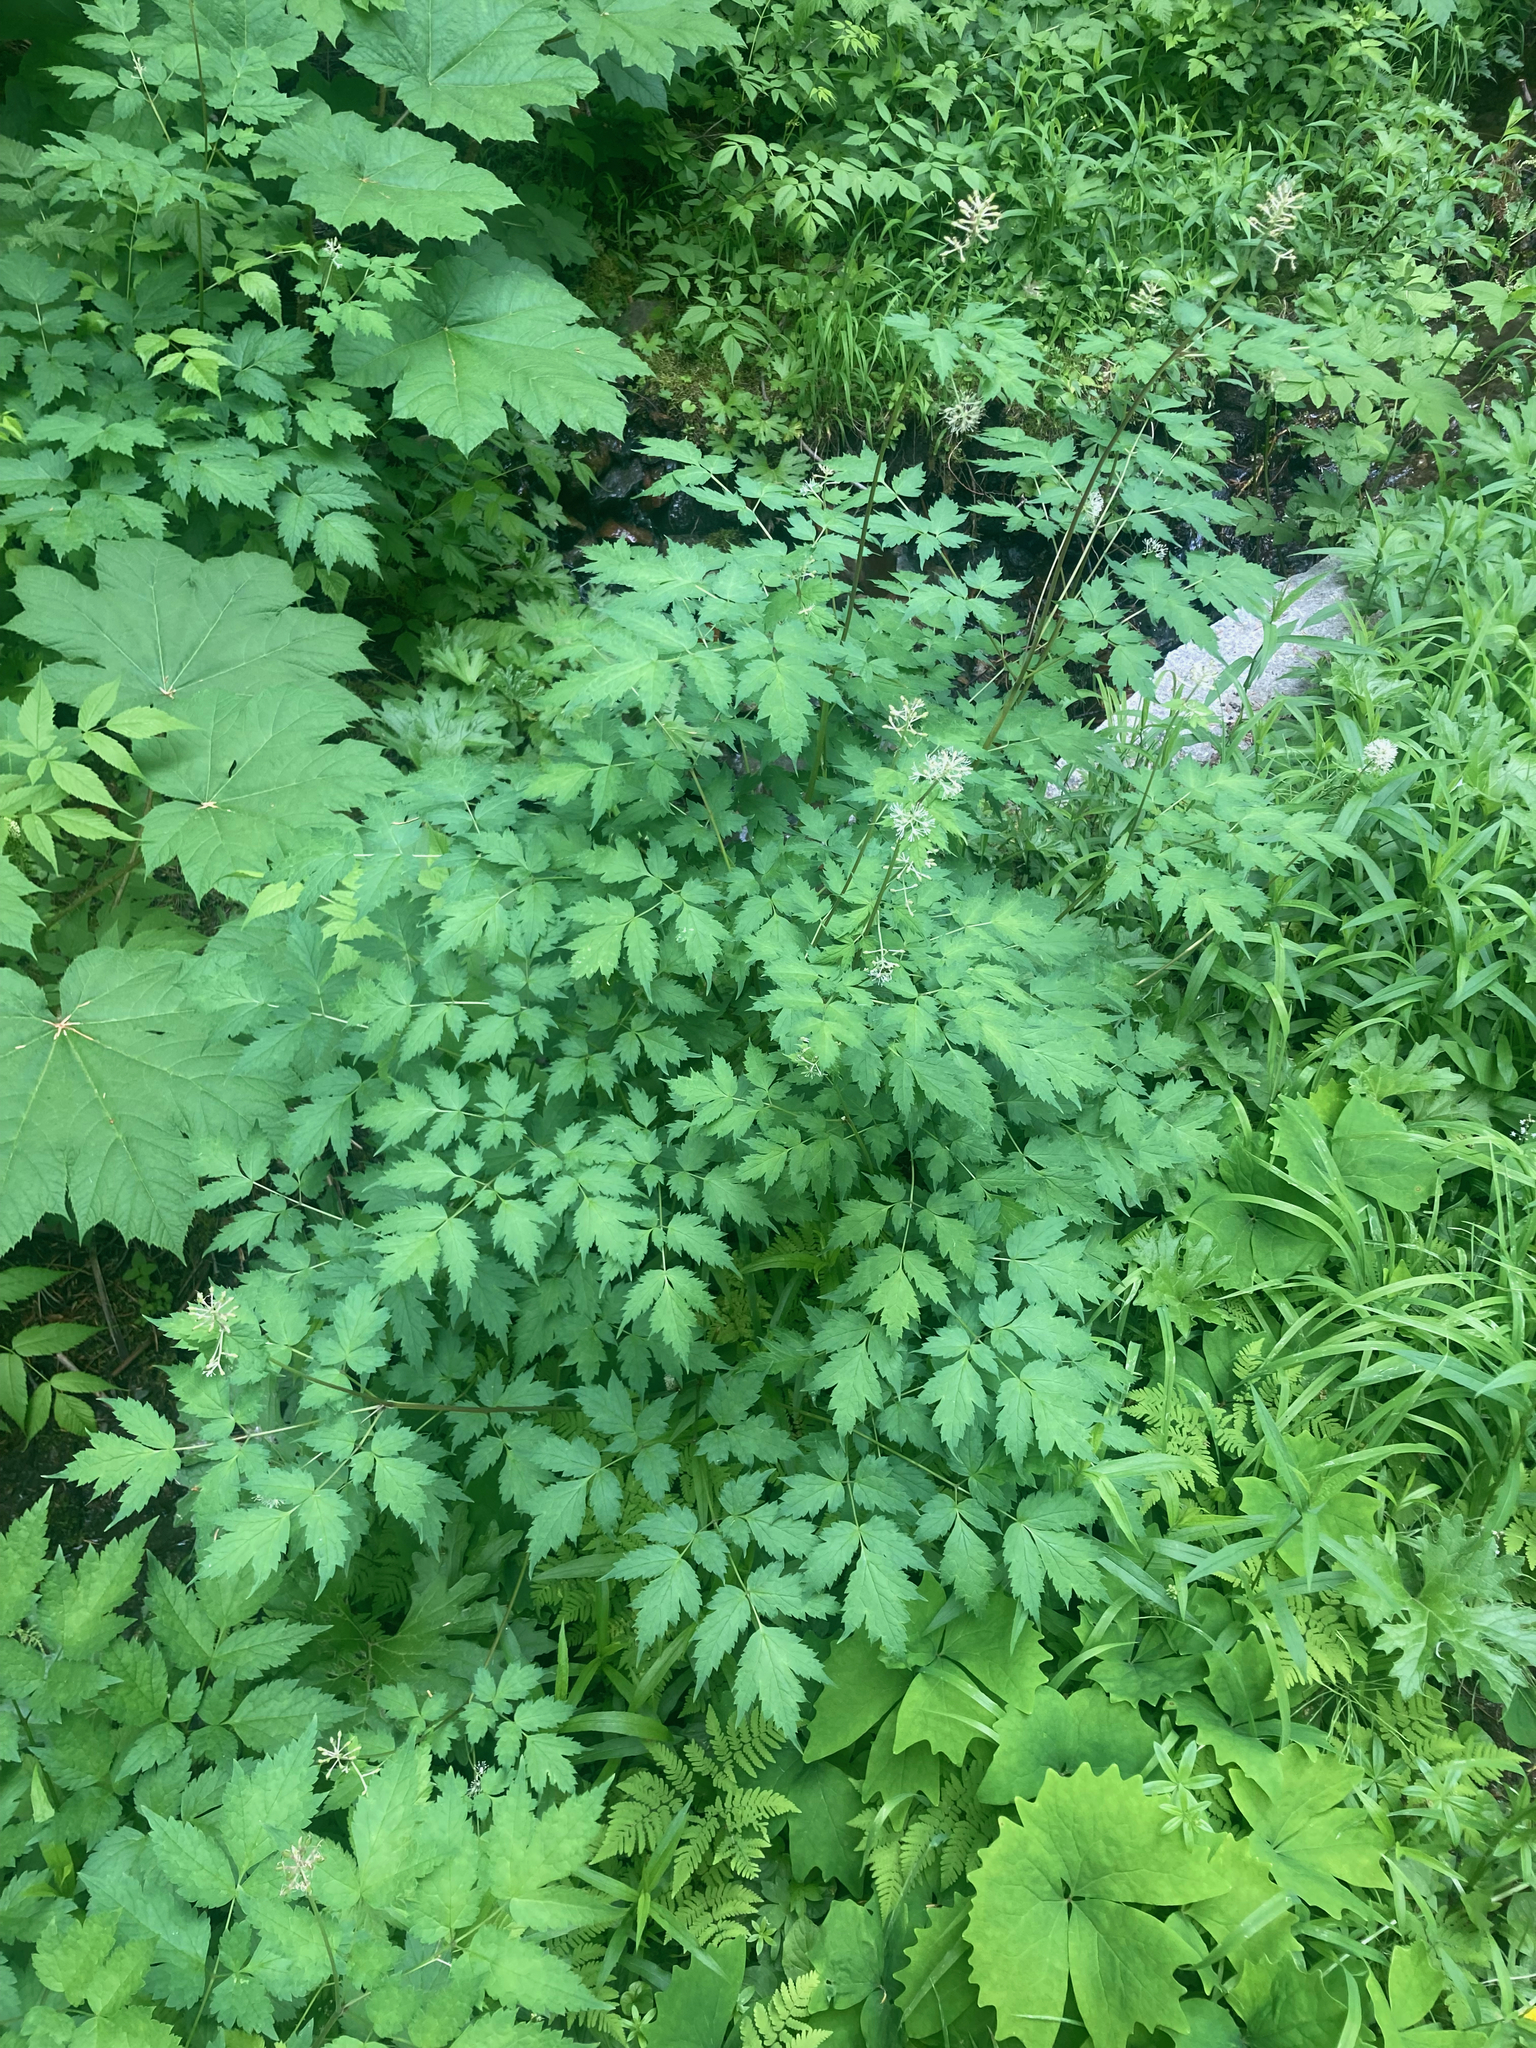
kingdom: Plantae
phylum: Tracheophyta
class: Magnoliopsida
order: Ranunculales
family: Ranunculaceae
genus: Actaea
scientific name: Actaea rubra
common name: Red baneberry
